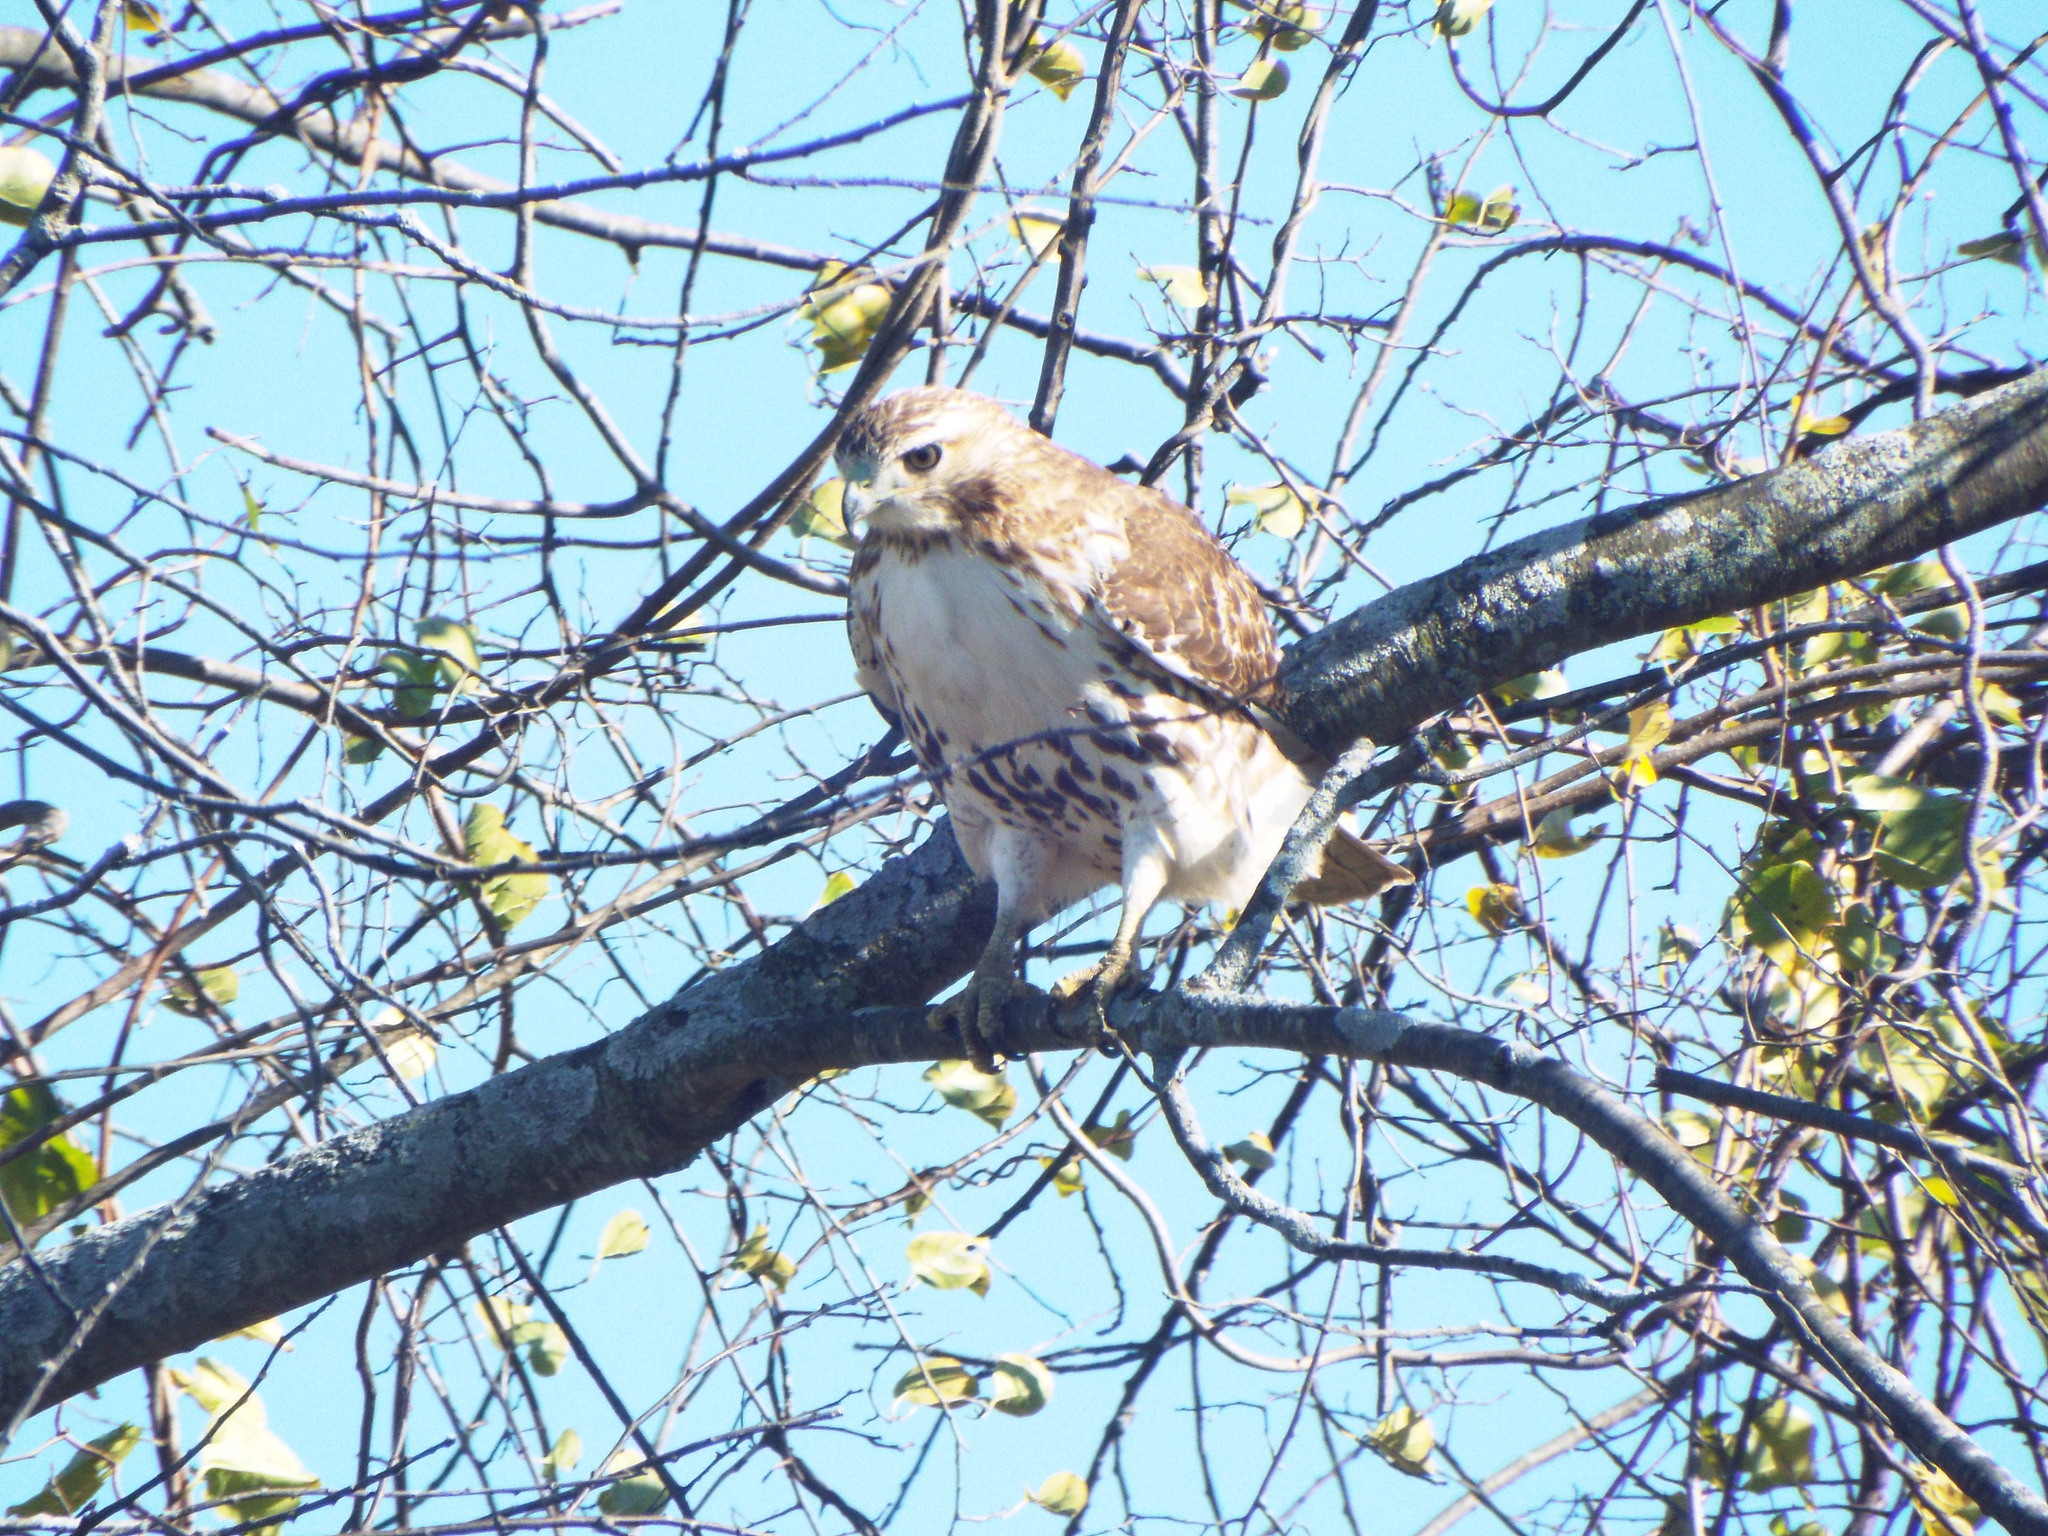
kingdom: Animalia
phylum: Chordata
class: Aves
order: Accipitriformes
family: Accipitridae
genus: Buteo
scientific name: Buteo jamaicensis
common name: Red-tailed hawk
